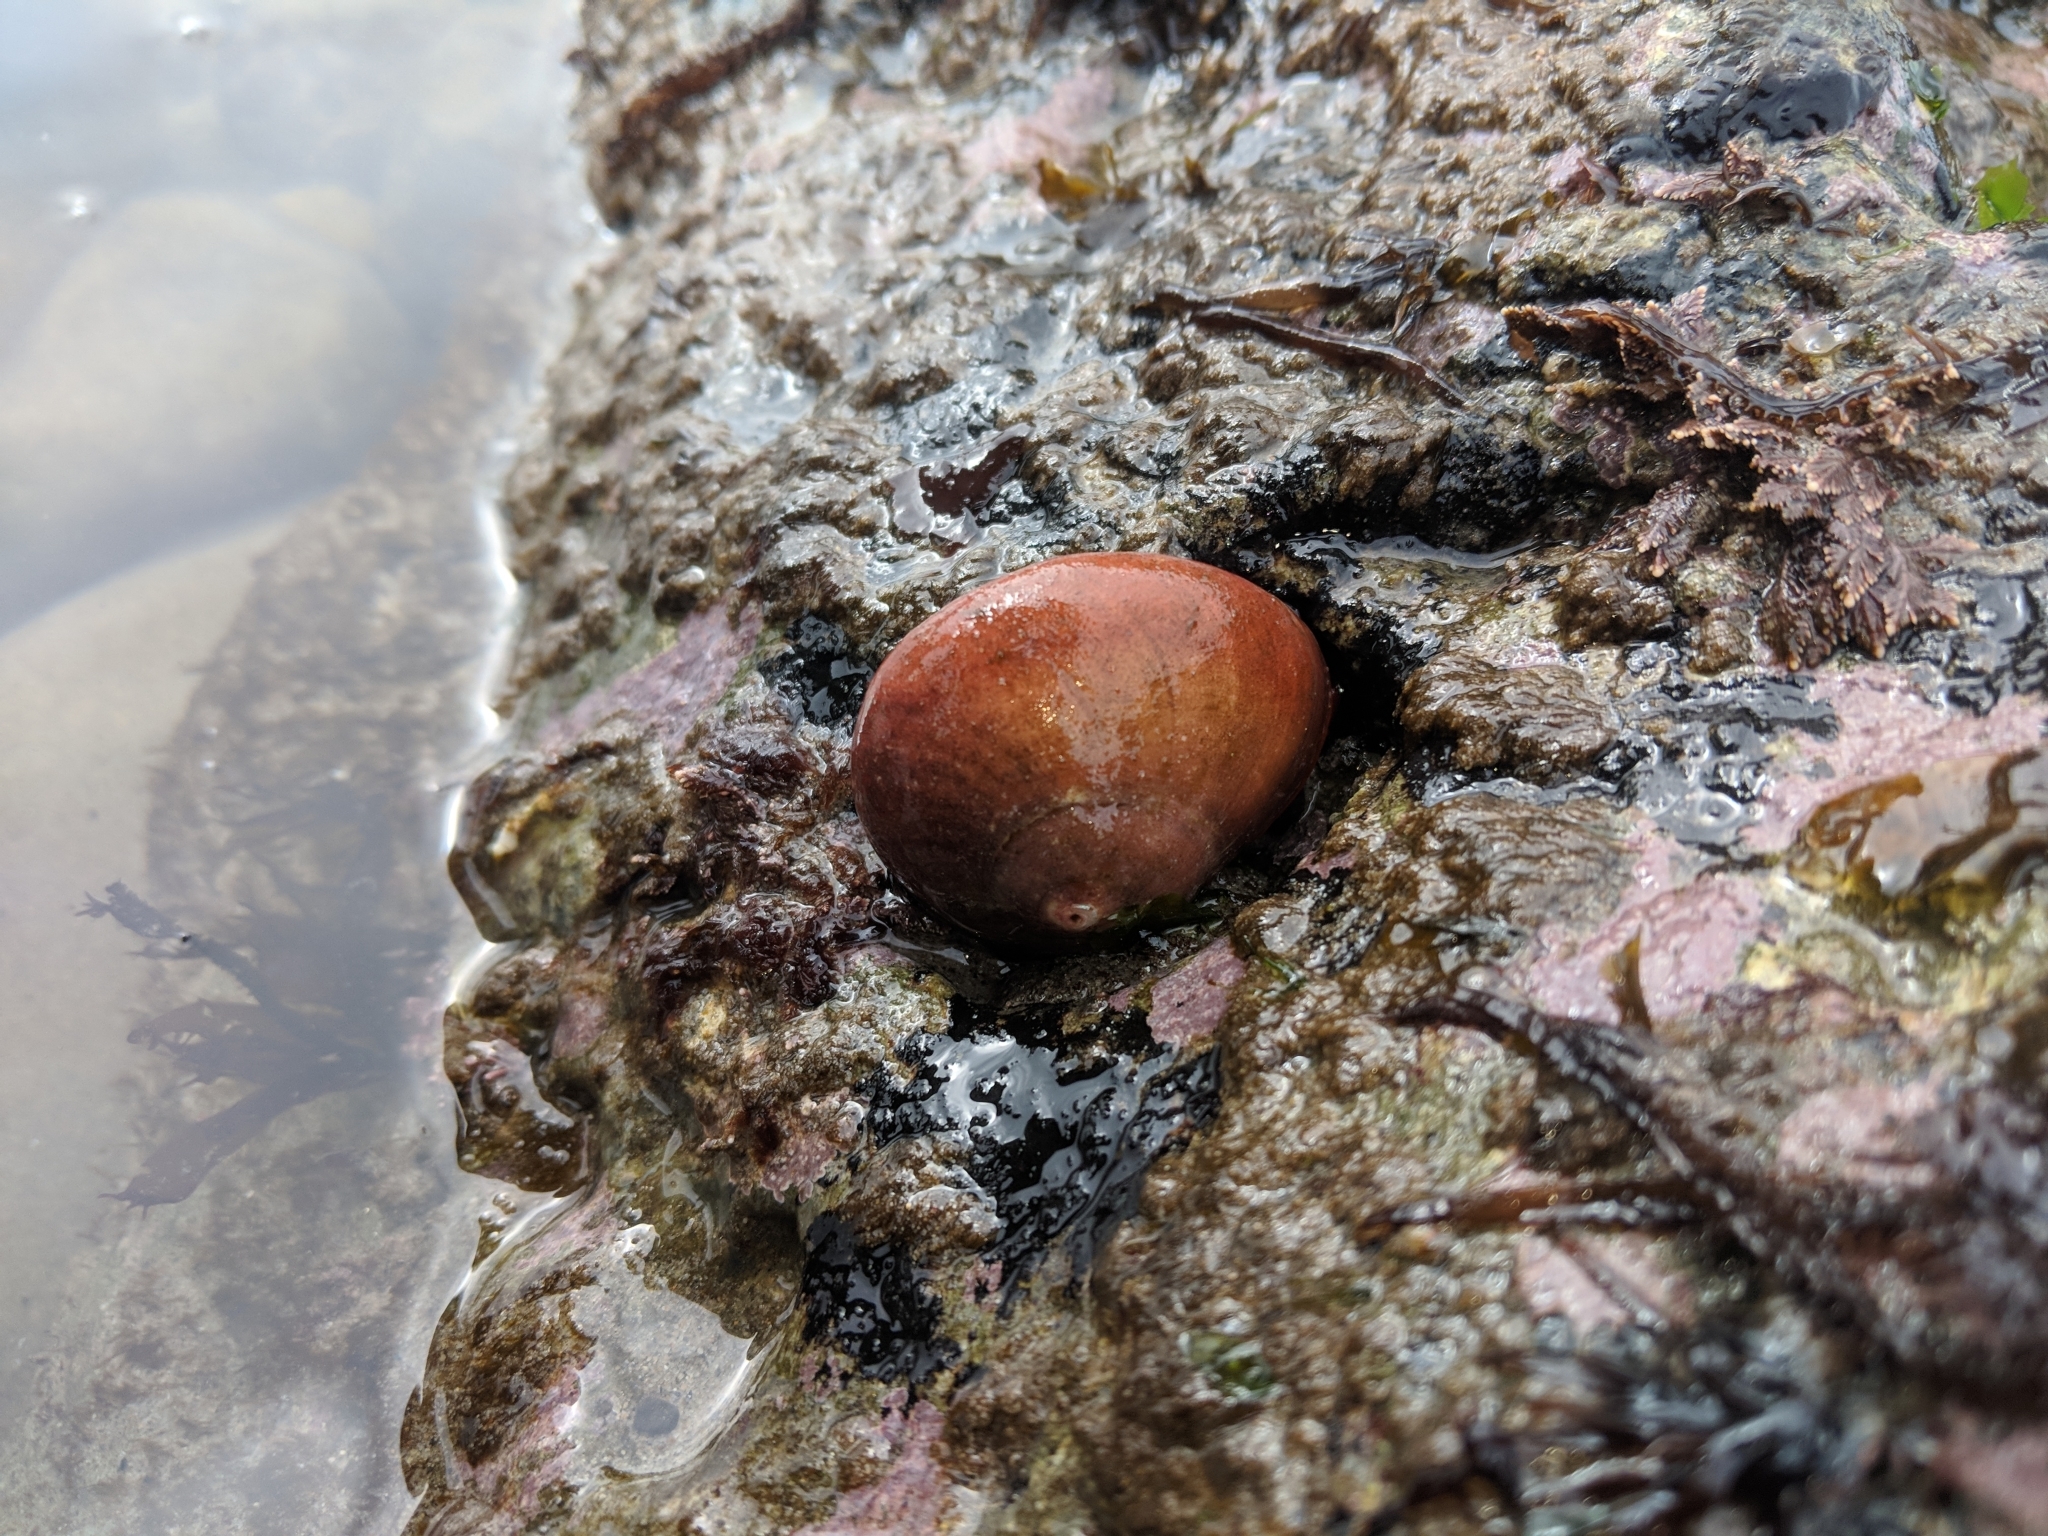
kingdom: Animalia
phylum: Mollusca
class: Gastropoda
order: Trochida
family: Tegulidae
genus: Norrisia
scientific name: Norrisia norrisii
